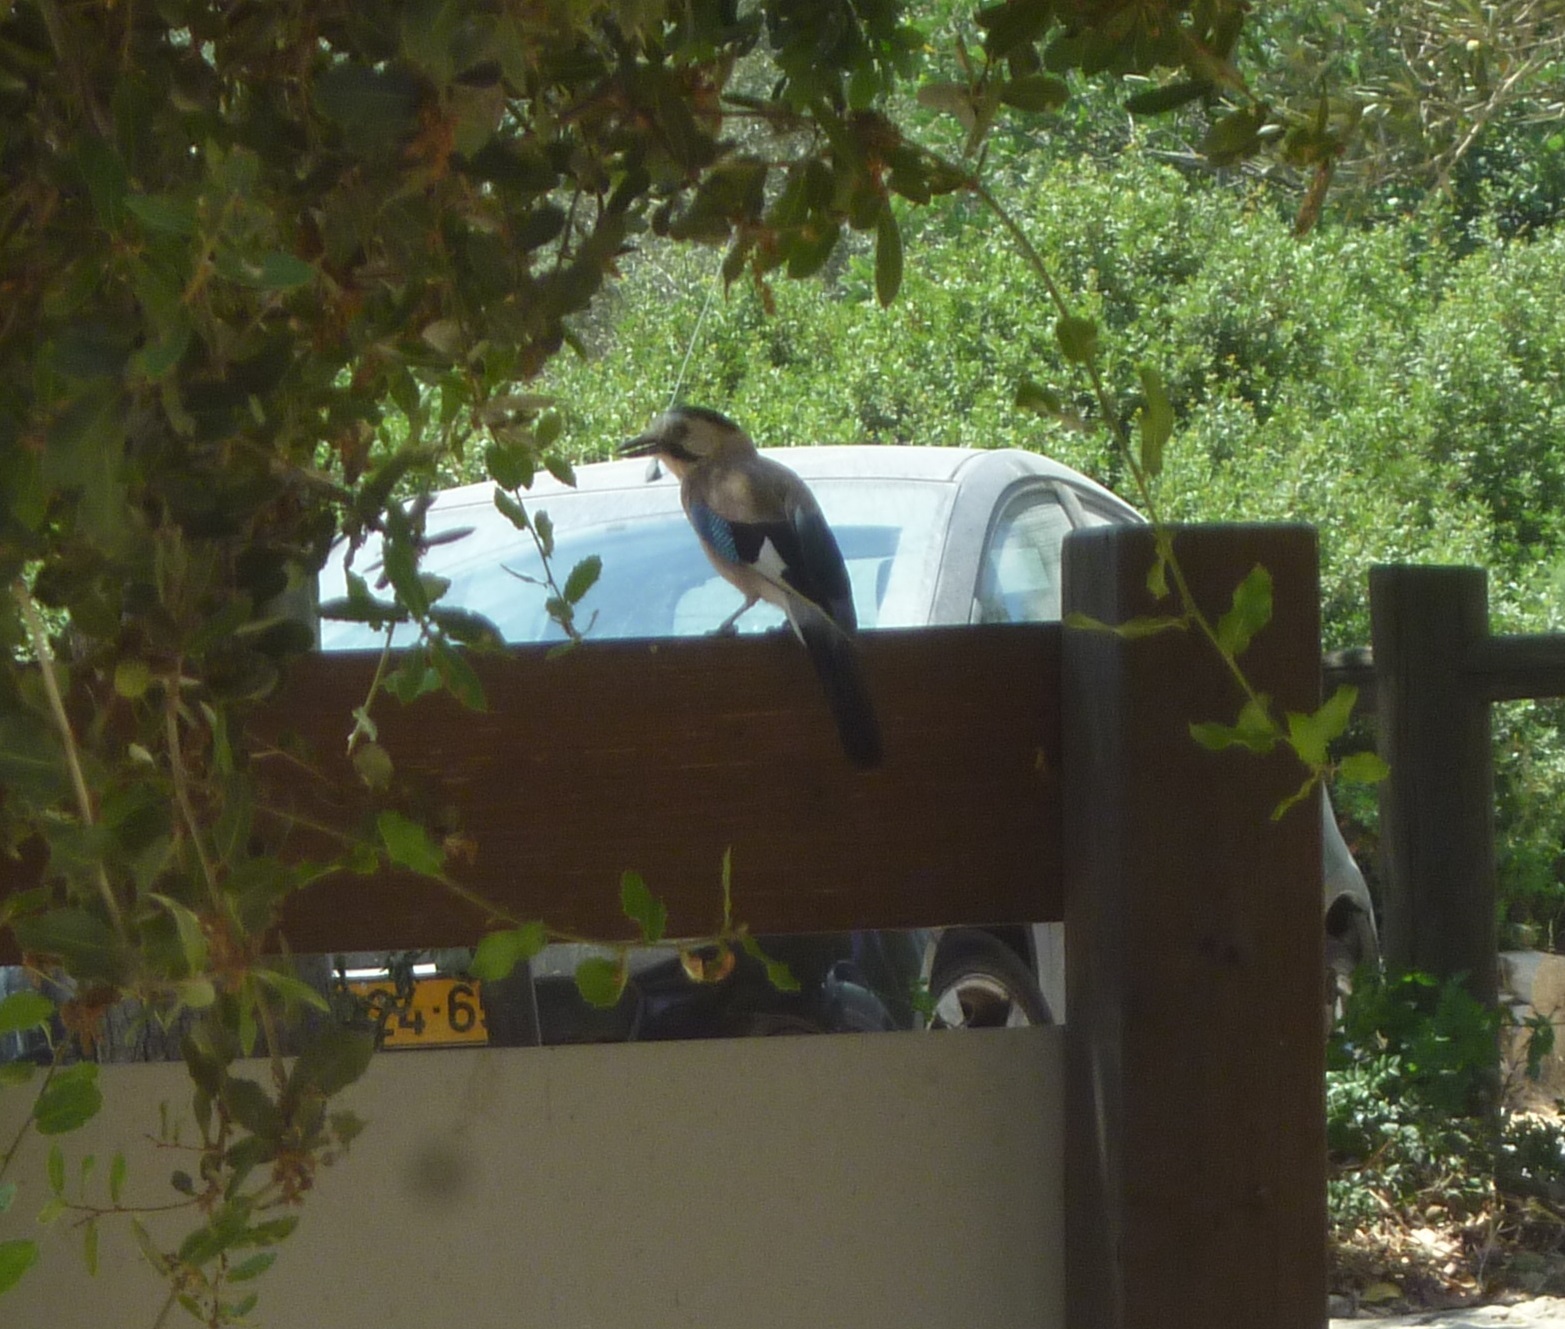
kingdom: Animalia
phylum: Chordata
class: Aves
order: Passeriformes
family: Corvidae
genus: Garrulus
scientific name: Garrulus glandarius
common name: Eurasian jay
